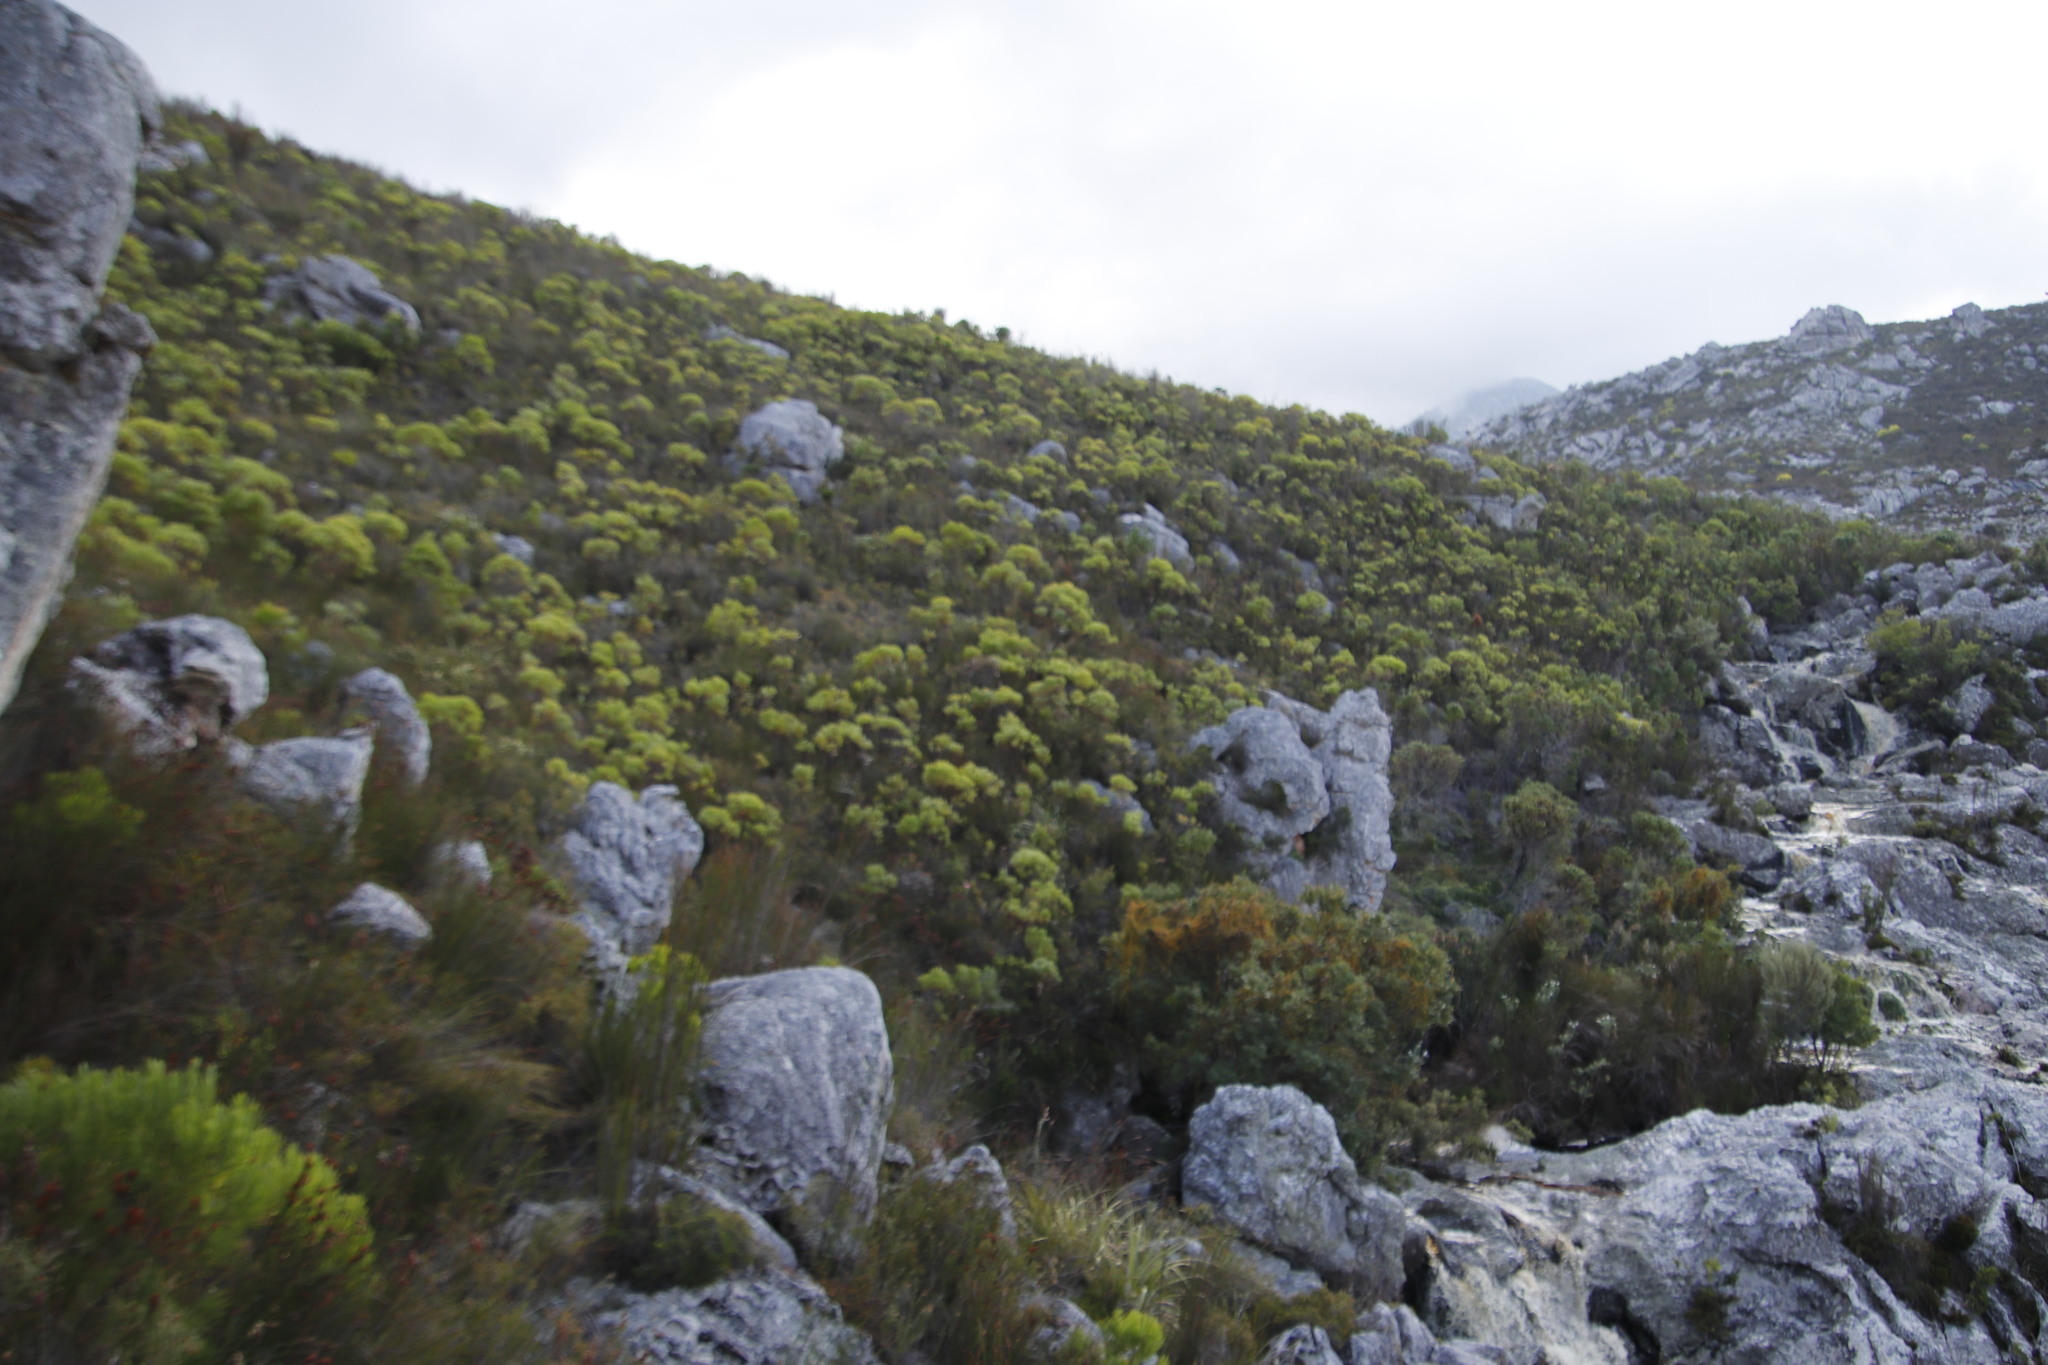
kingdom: Plantae
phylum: Tracheophyta
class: Magnoliopsida
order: Proteales
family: Proteaceae
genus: Leucadendron
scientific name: Leucadendron xanthoconus
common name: Sickle-leaf conebush
